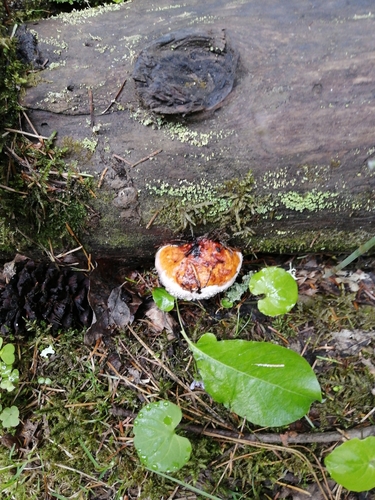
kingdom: Fungi
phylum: Basidiomycota
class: Agaricomycetes
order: Polyporales
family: Fomitopsidaceae
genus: Fomitopsis
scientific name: Fomitopsis pinicola
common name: Red-belted bracket
